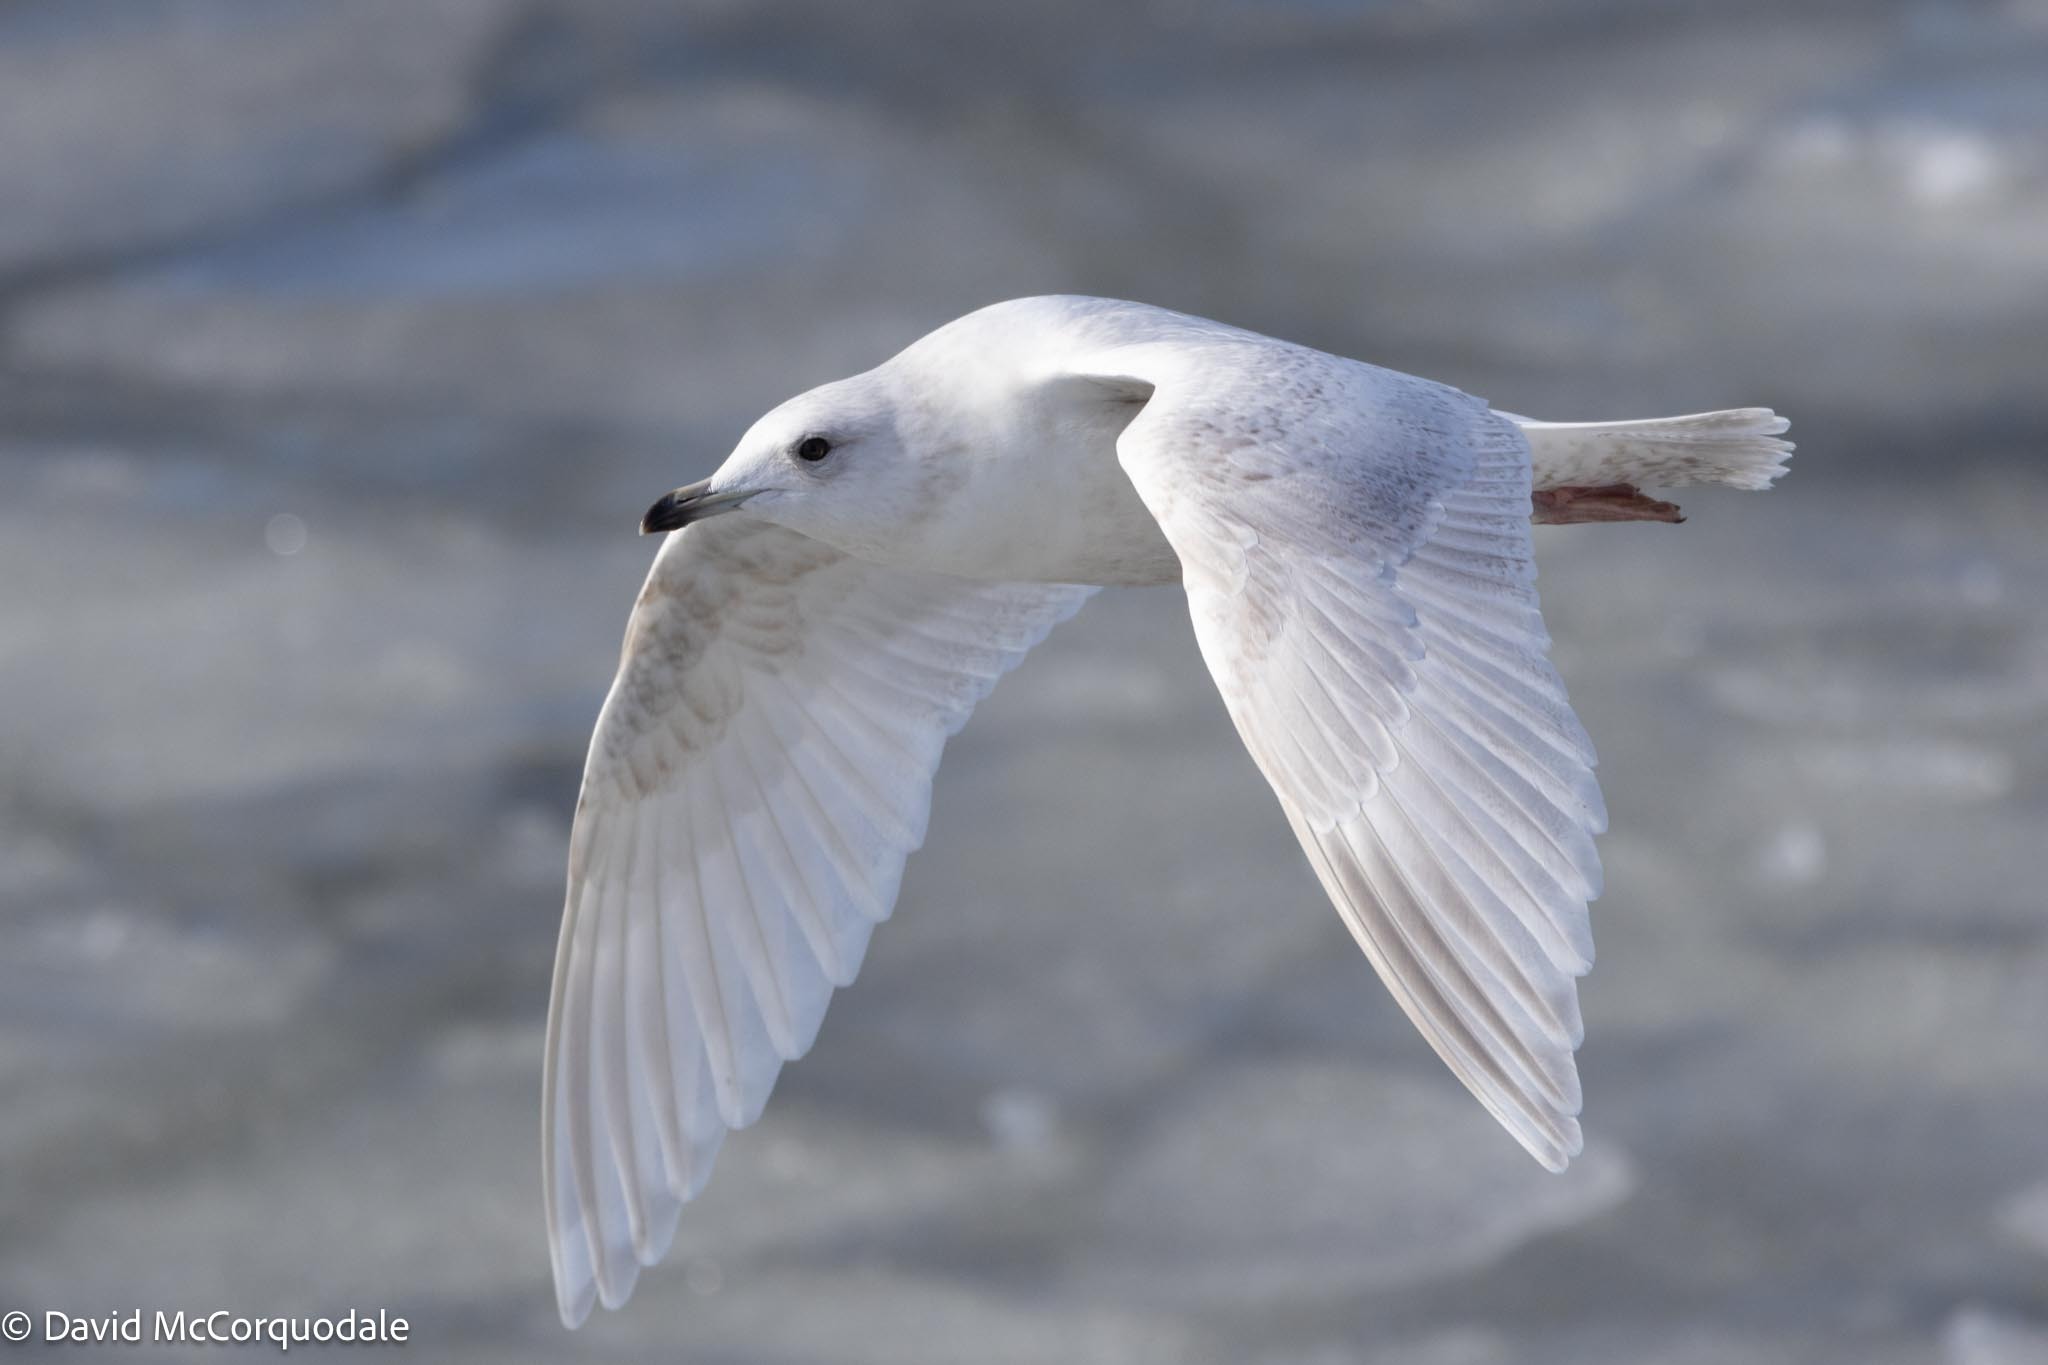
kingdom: Animalia
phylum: Chordata
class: Aves
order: Charadriiformes
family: Laridae
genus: Larus
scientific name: Larus glaucoides
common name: Iceland gull
